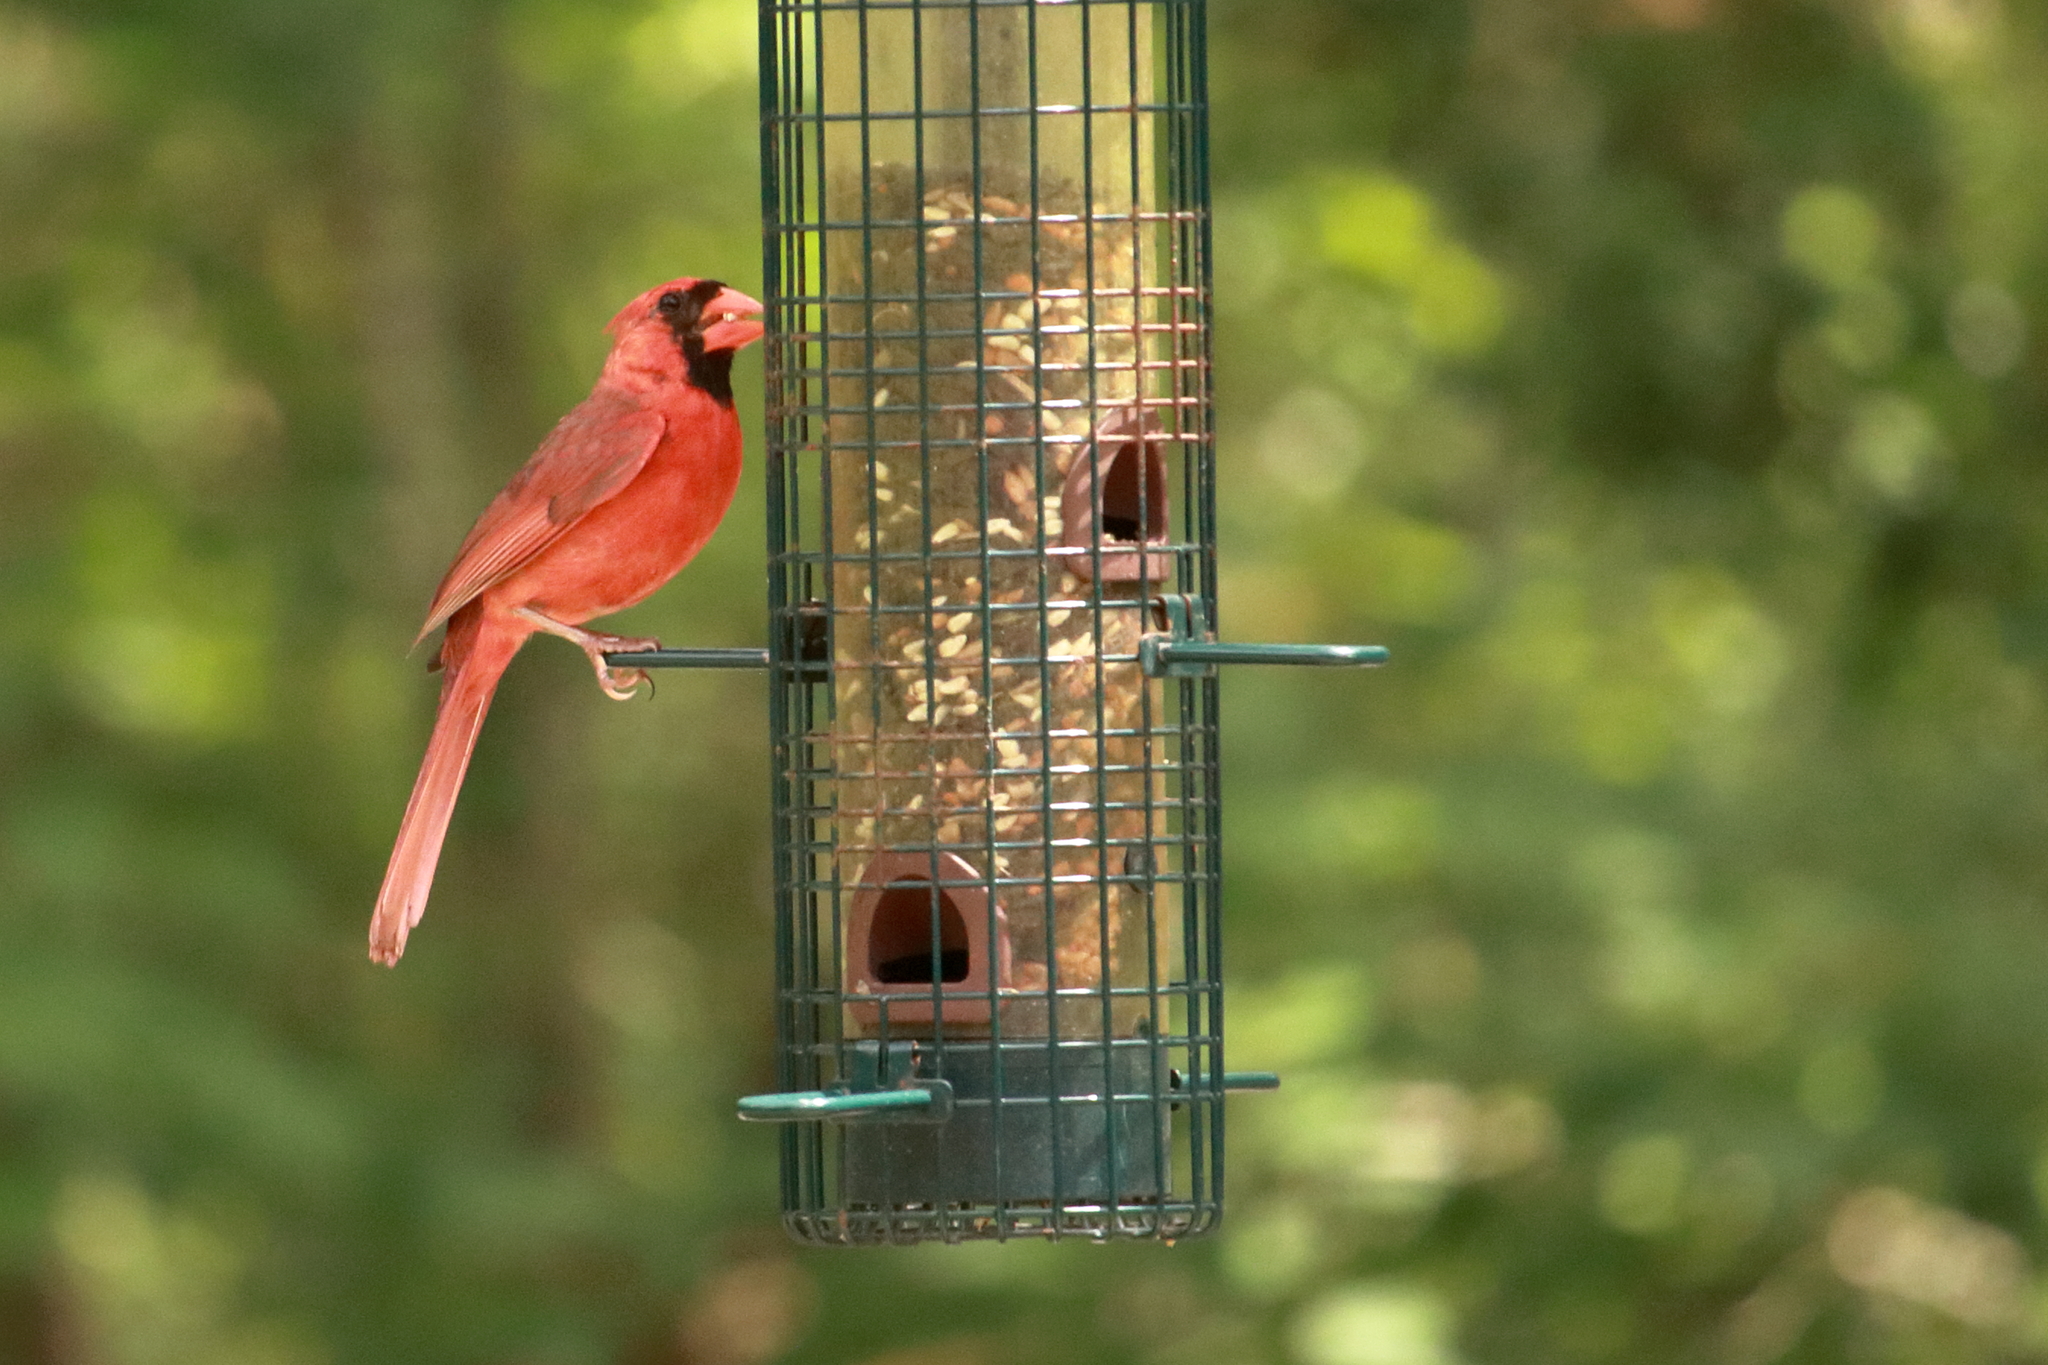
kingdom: Animalia
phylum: Chordata
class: Aves
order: Passeriformes
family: Cardinalidae
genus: Cardinalis
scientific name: Cardinalis cardinalis
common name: Northern cardinal
